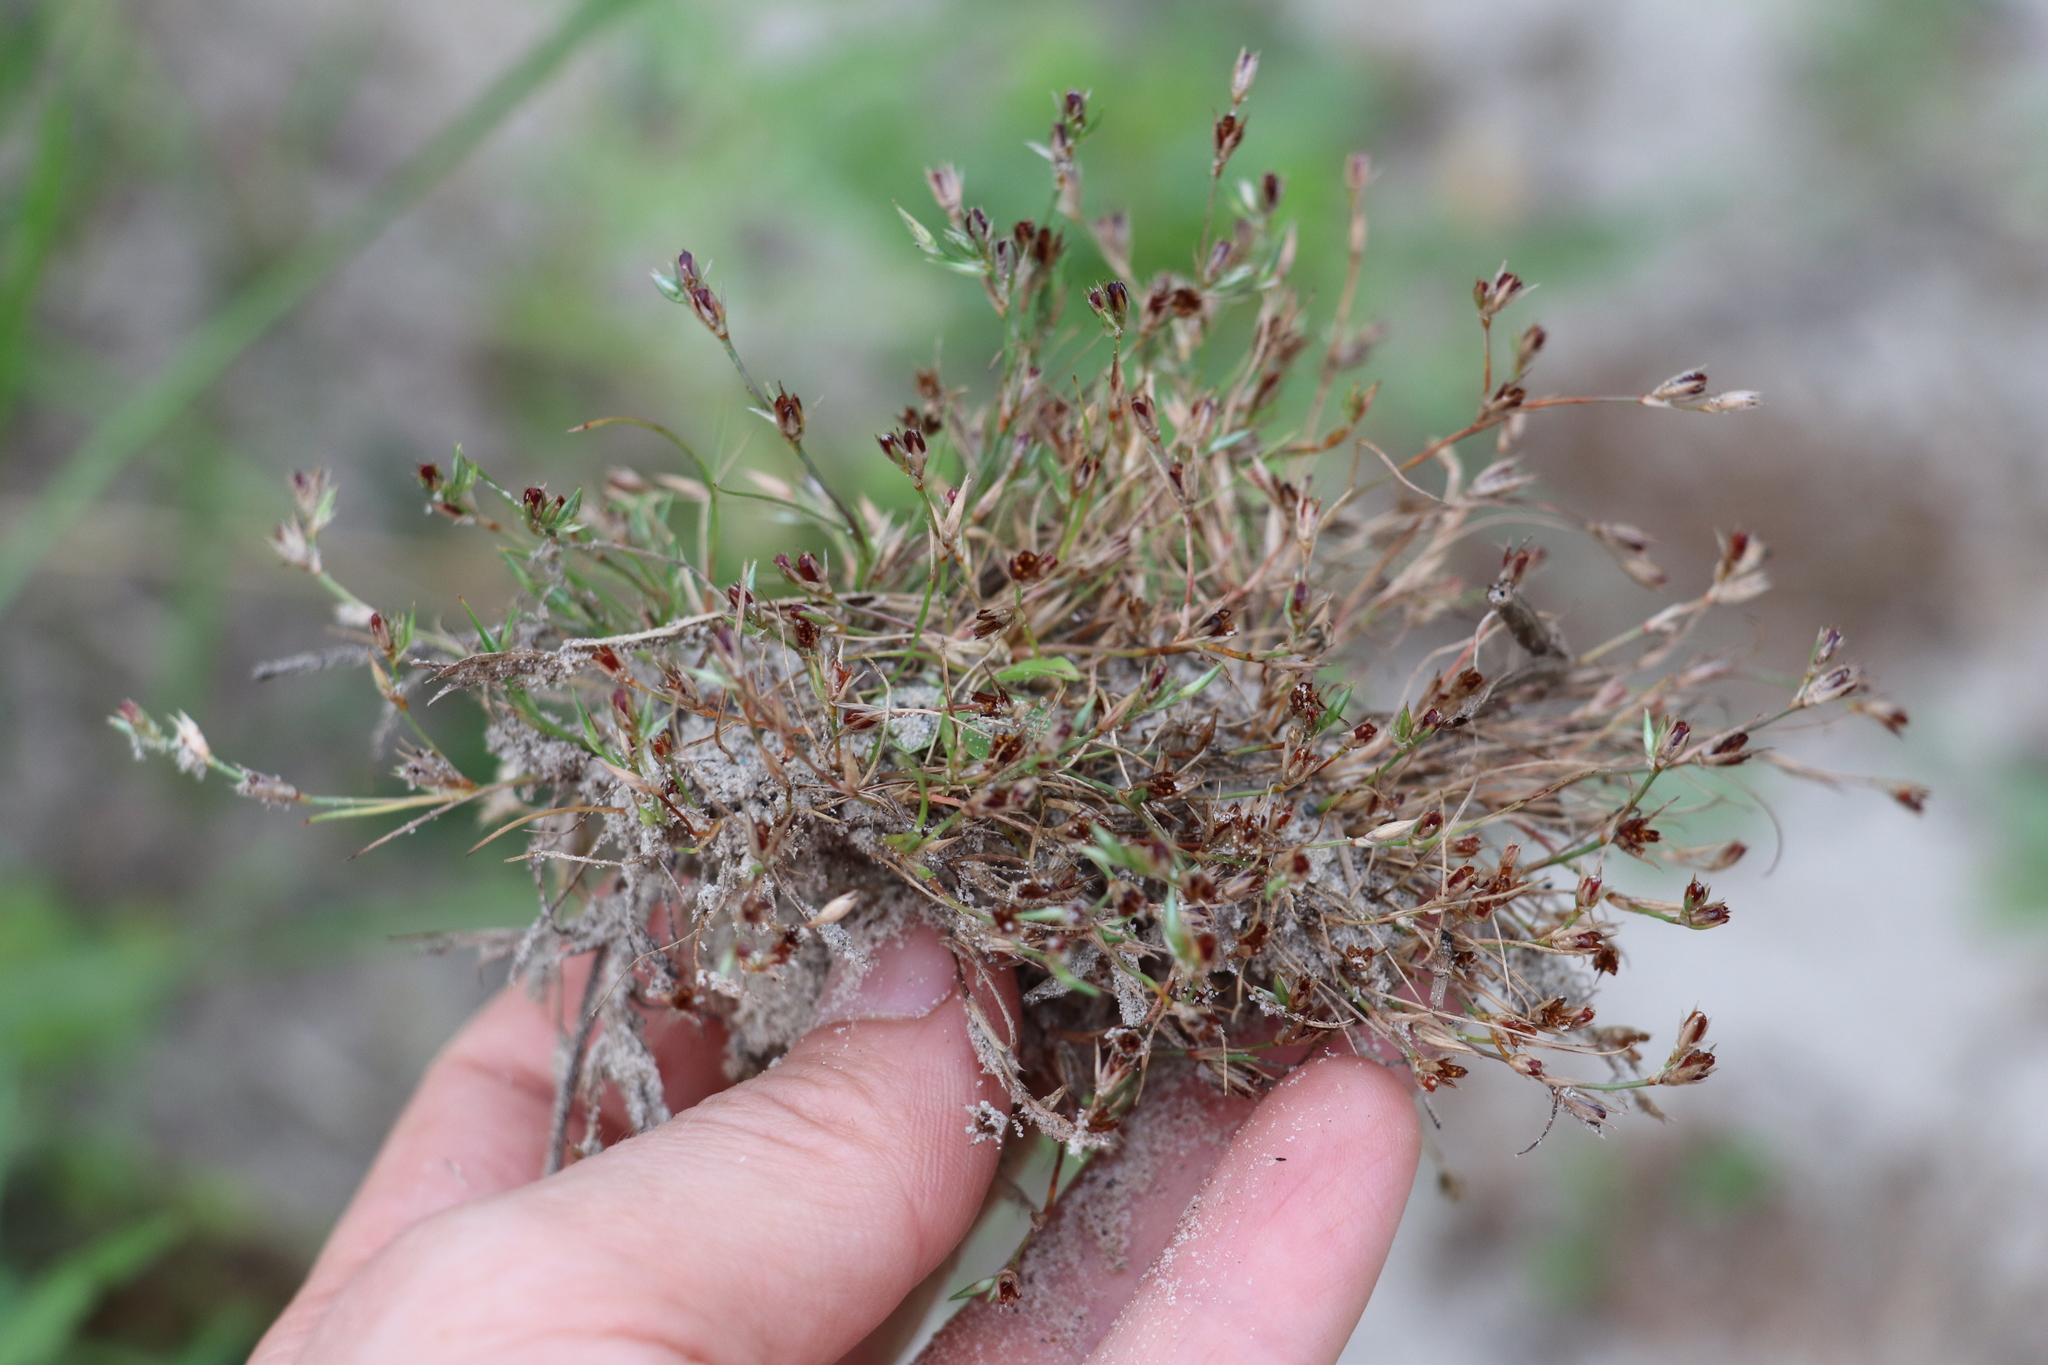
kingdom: Plantae
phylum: Tracheophyta
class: Liliopsida
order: Poales
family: Juncaceae
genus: Juncus
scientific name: Juncus bufonius
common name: Toad rush
